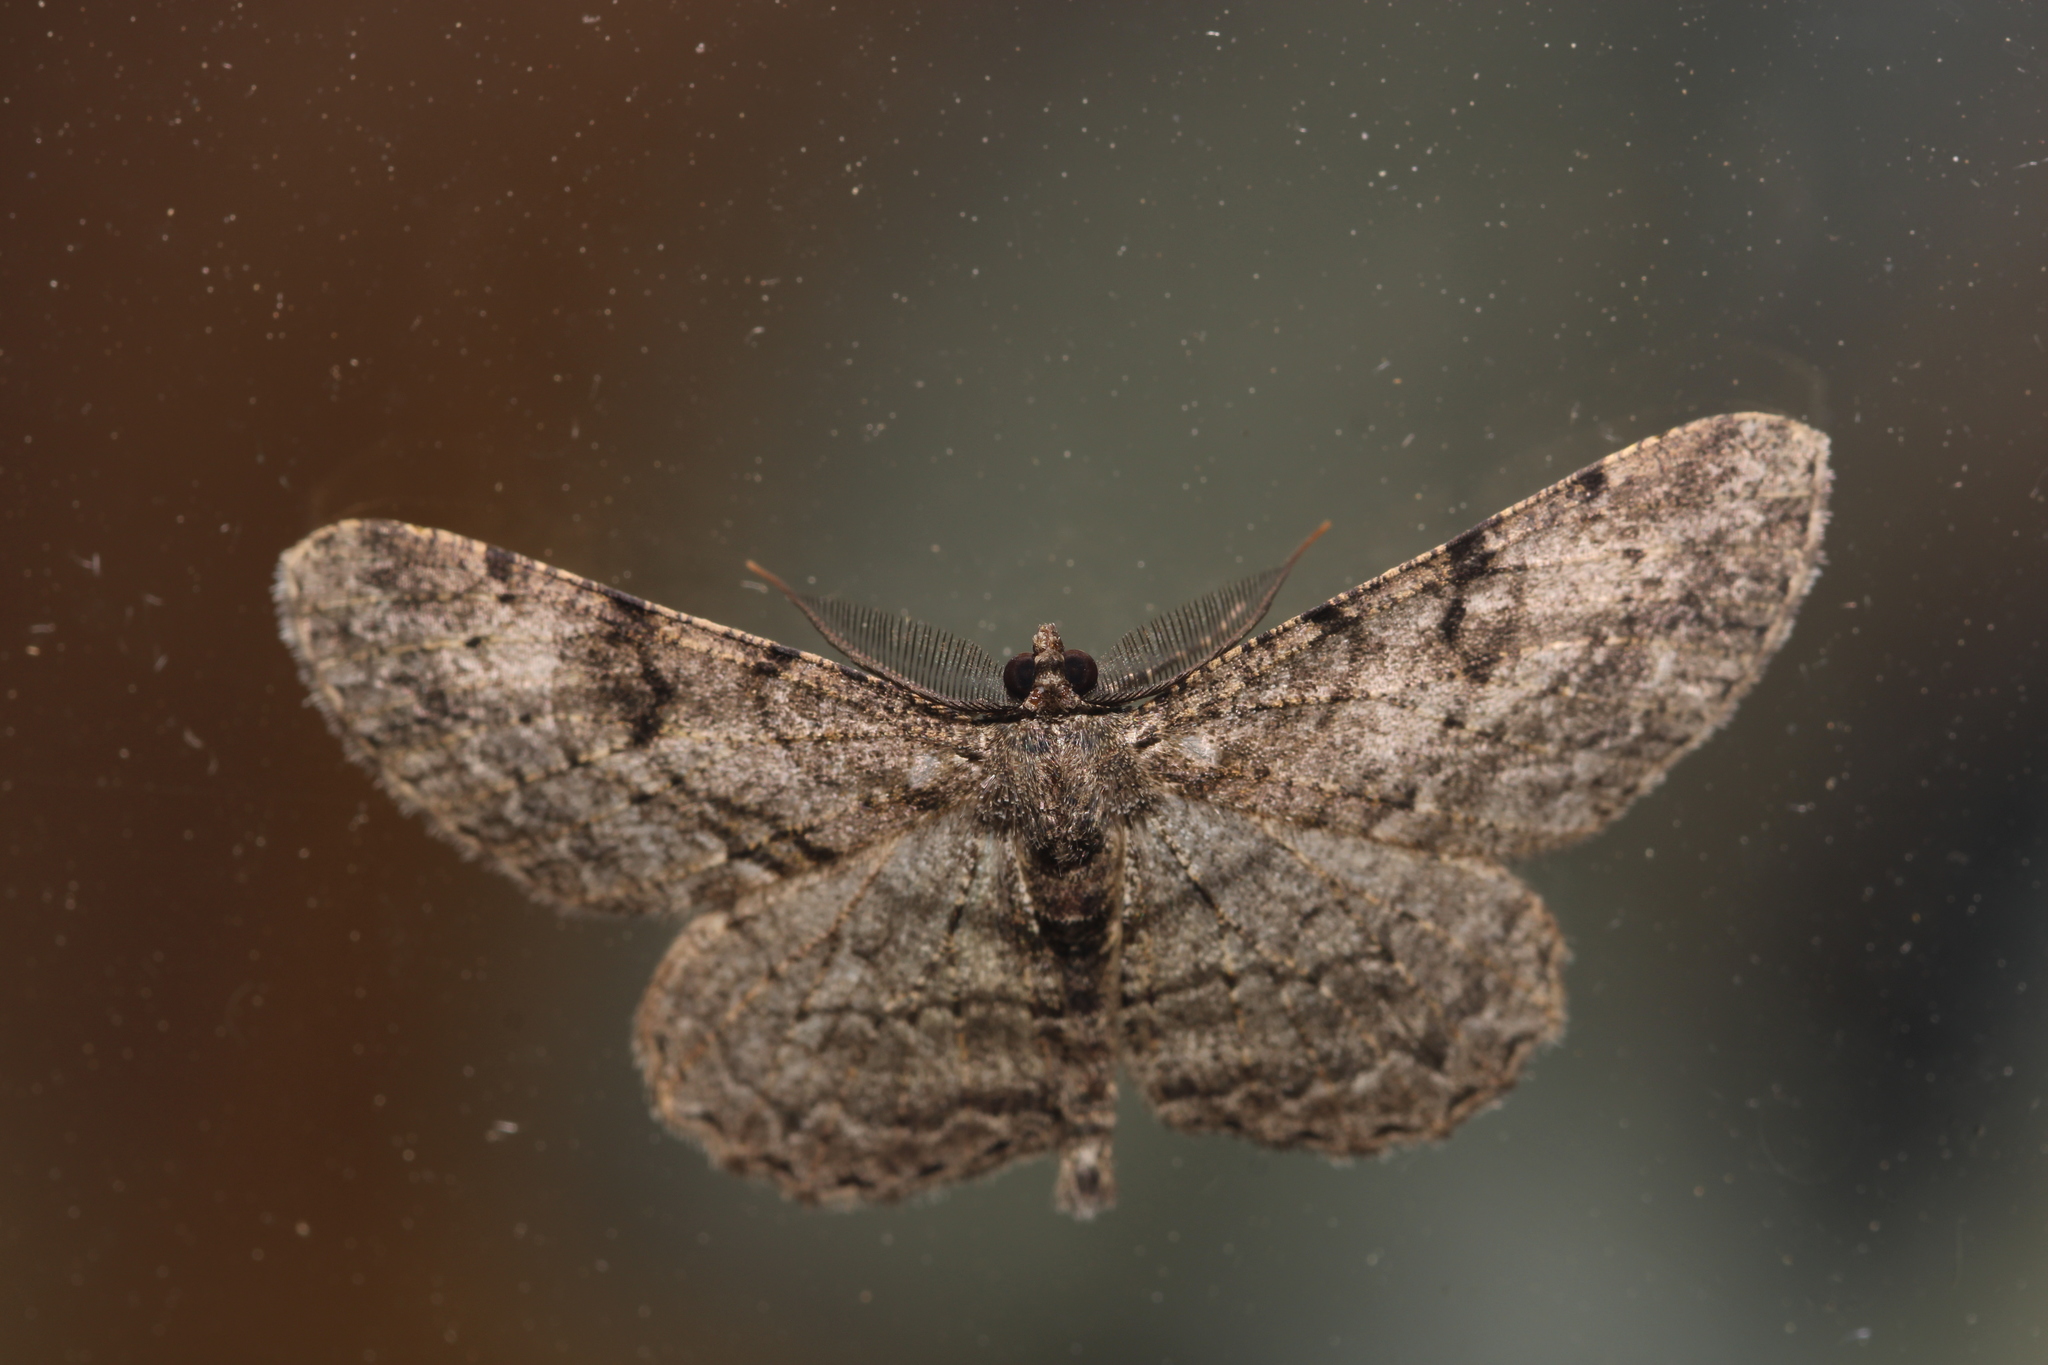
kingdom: Animalia
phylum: Arthropoda
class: Insecta
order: Lepidoptera
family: Geometridae
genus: Peribatodes
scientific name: Peribatodes rhomboidaria
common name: Willow beauty
